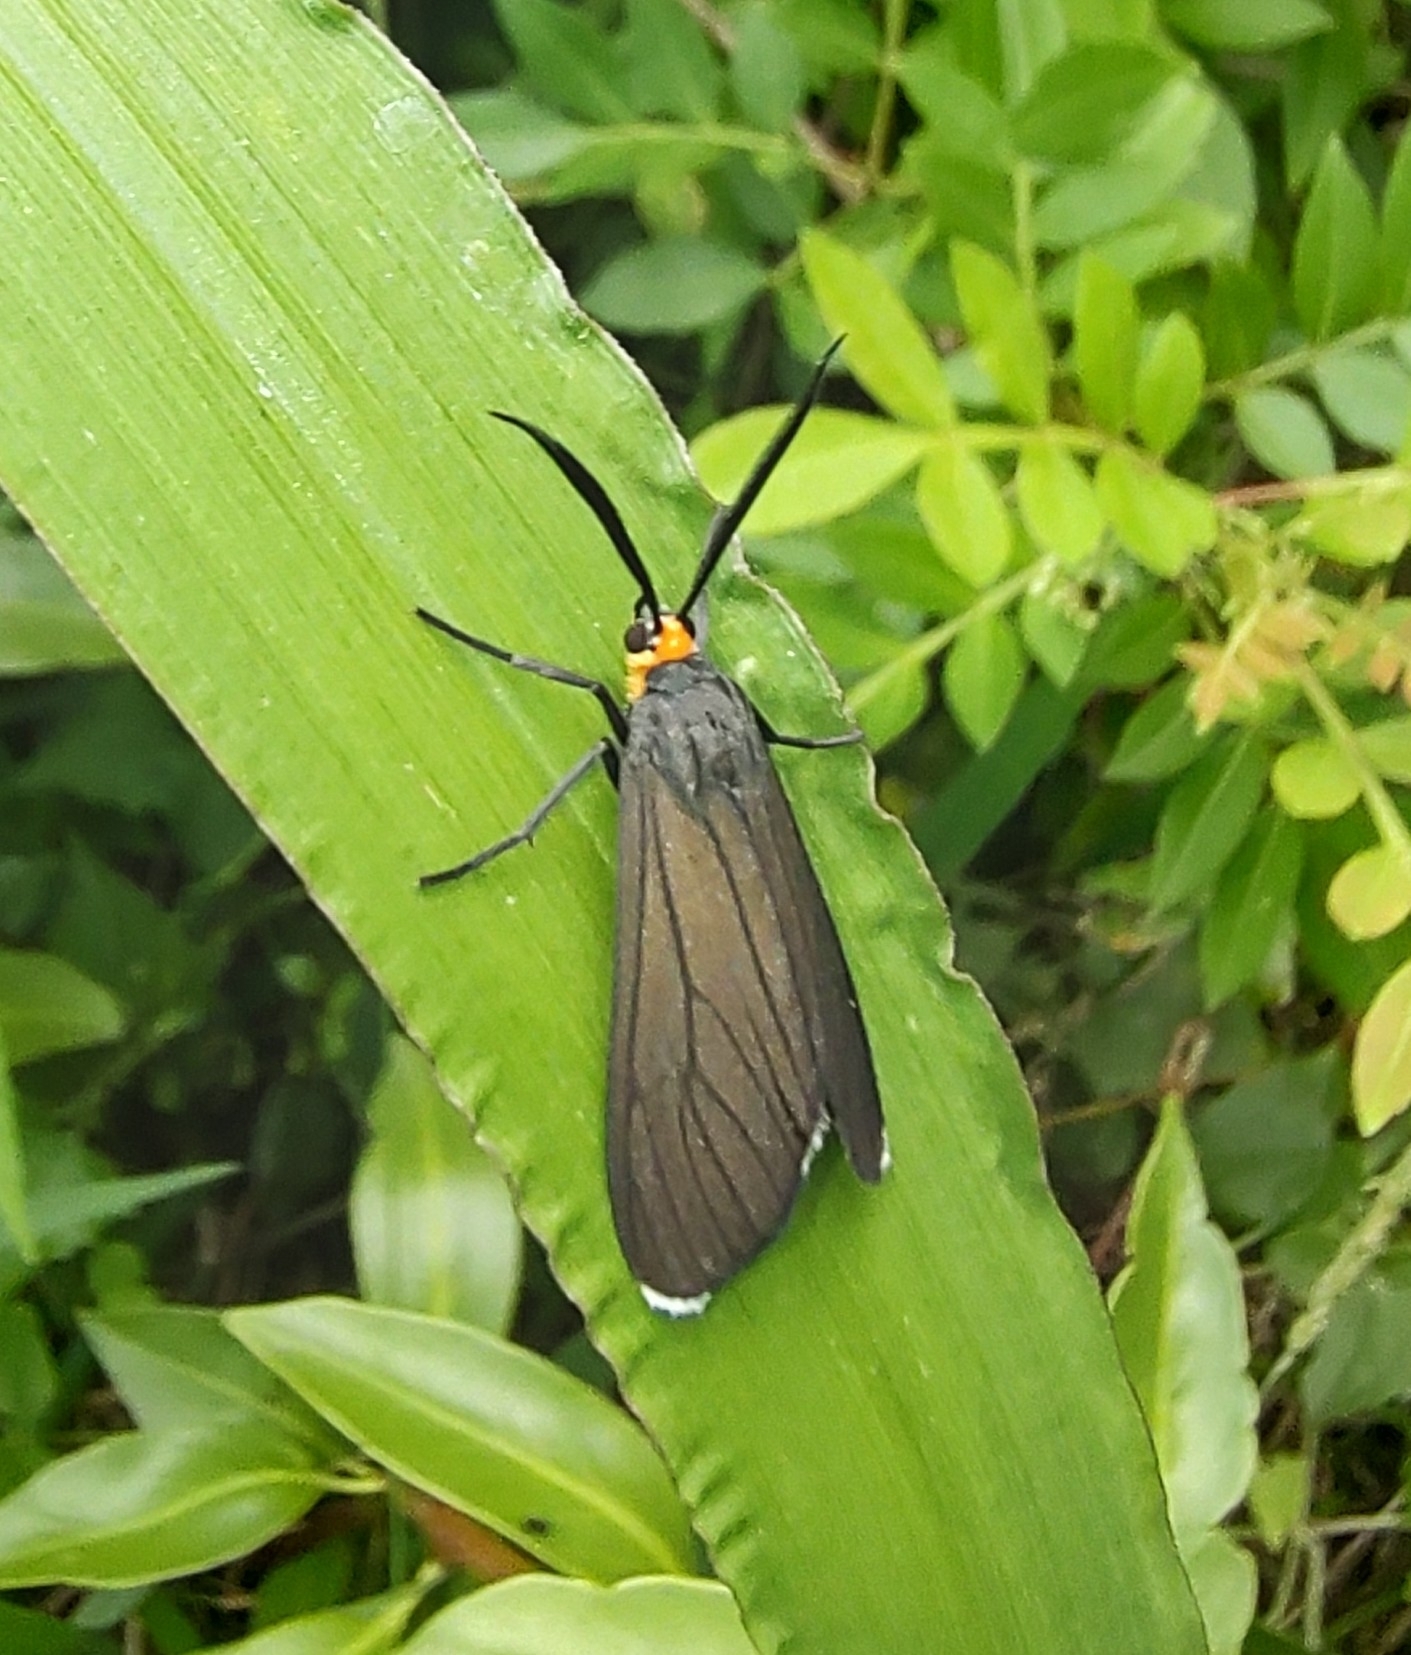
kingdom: Animalia
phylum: Arthropoda
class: Insecta
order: Lepidoptera
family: Erebidae
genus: Ctenucha
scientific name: Ctenucha rubriceps
